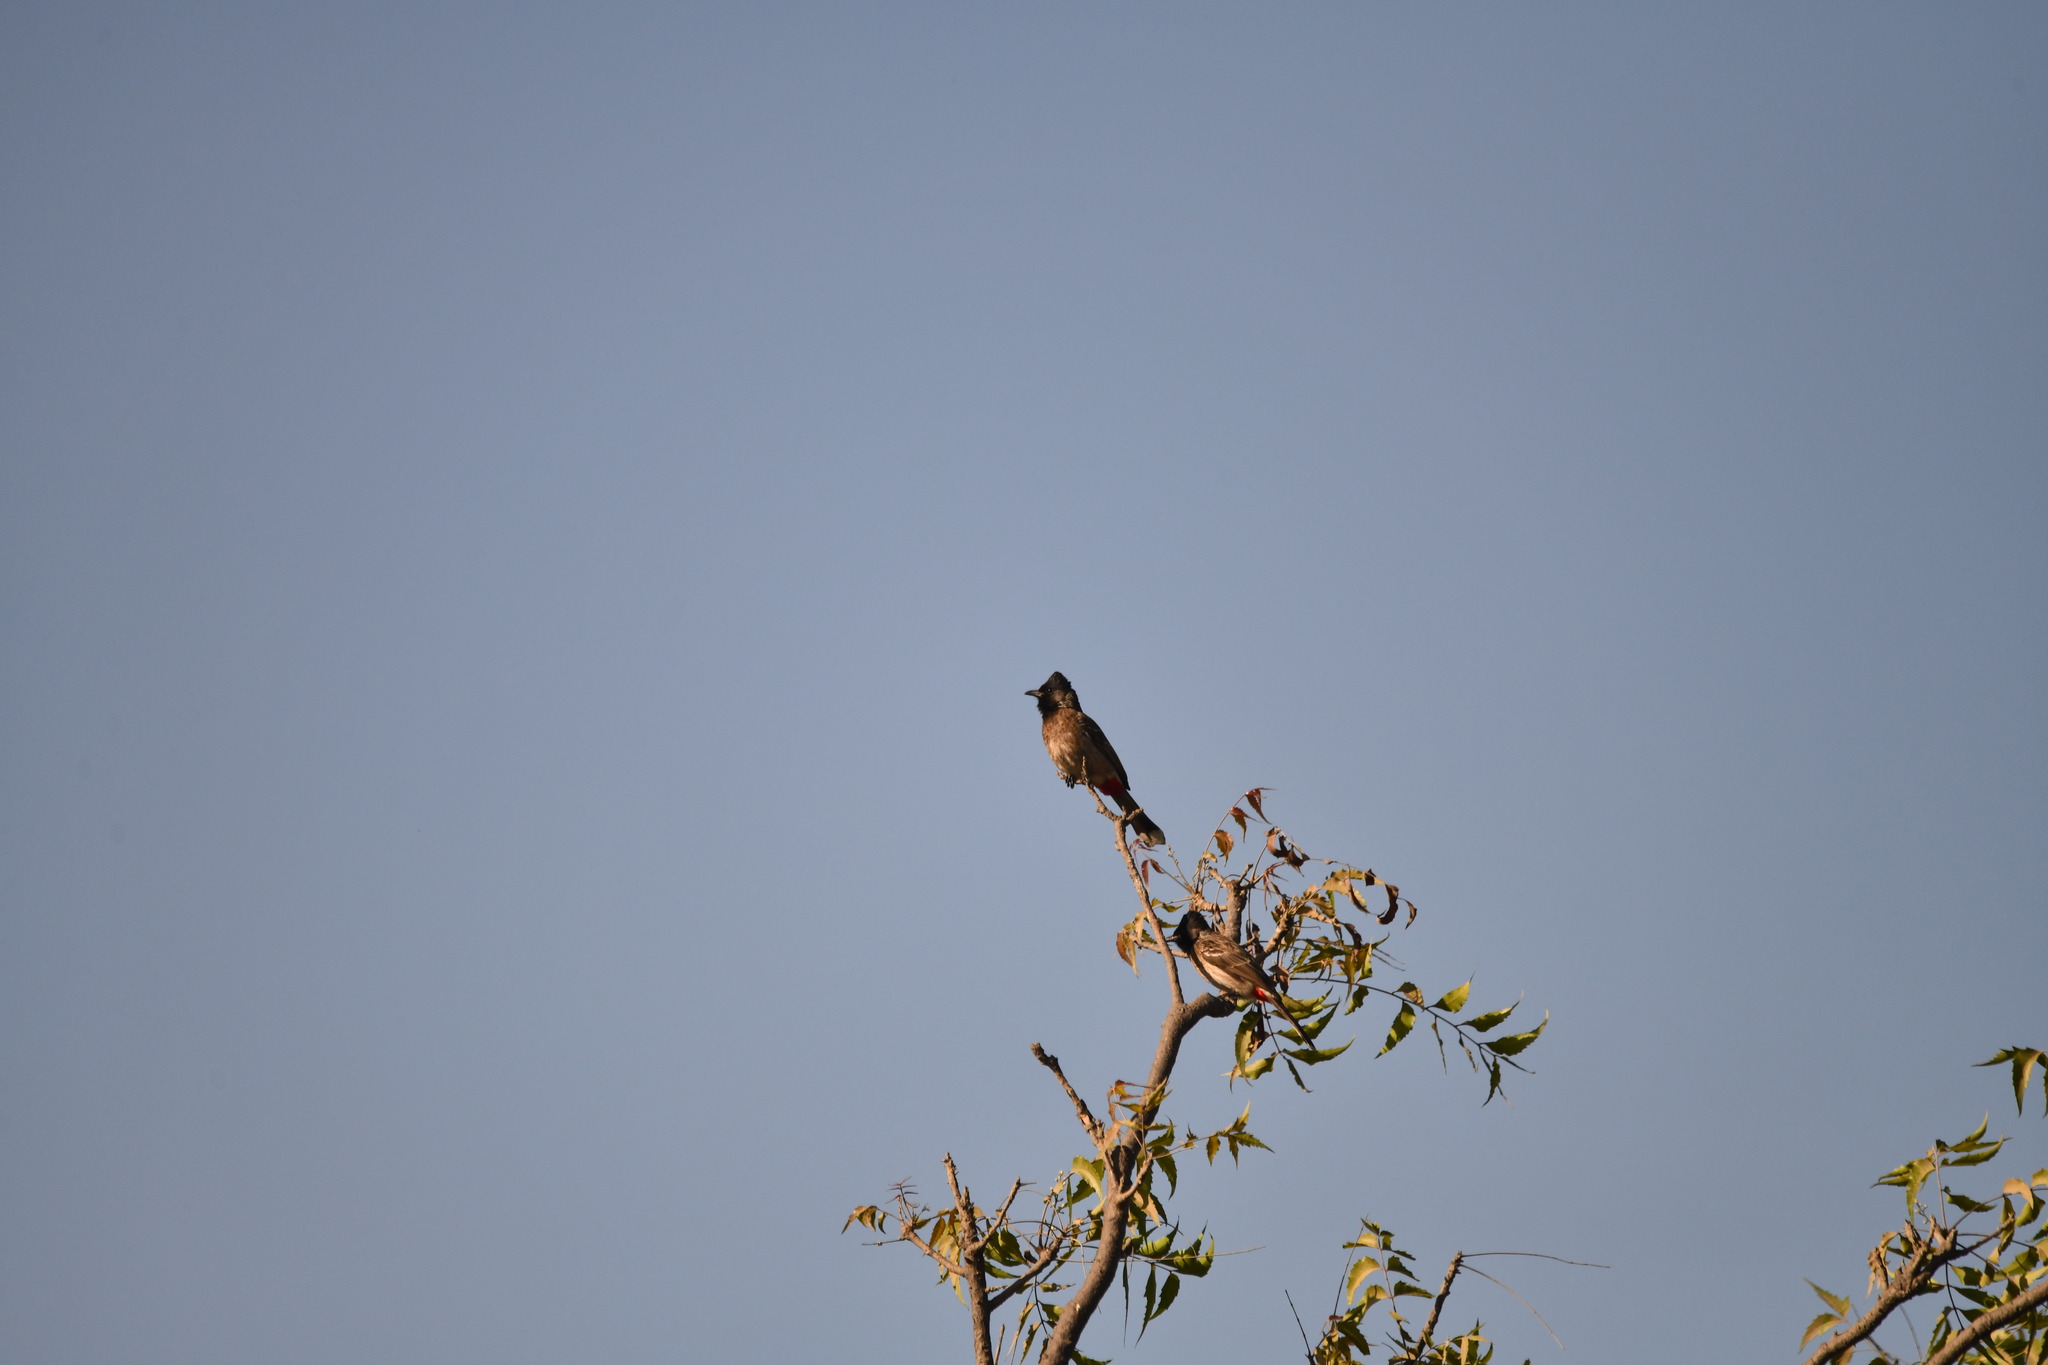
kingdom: Animalia
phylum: Chordata
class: Aves
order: Passeriformes
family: Pycnonotidae
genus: Pycnonotus
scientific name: Pycnonotus cafer
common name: Red-vented bulbul
